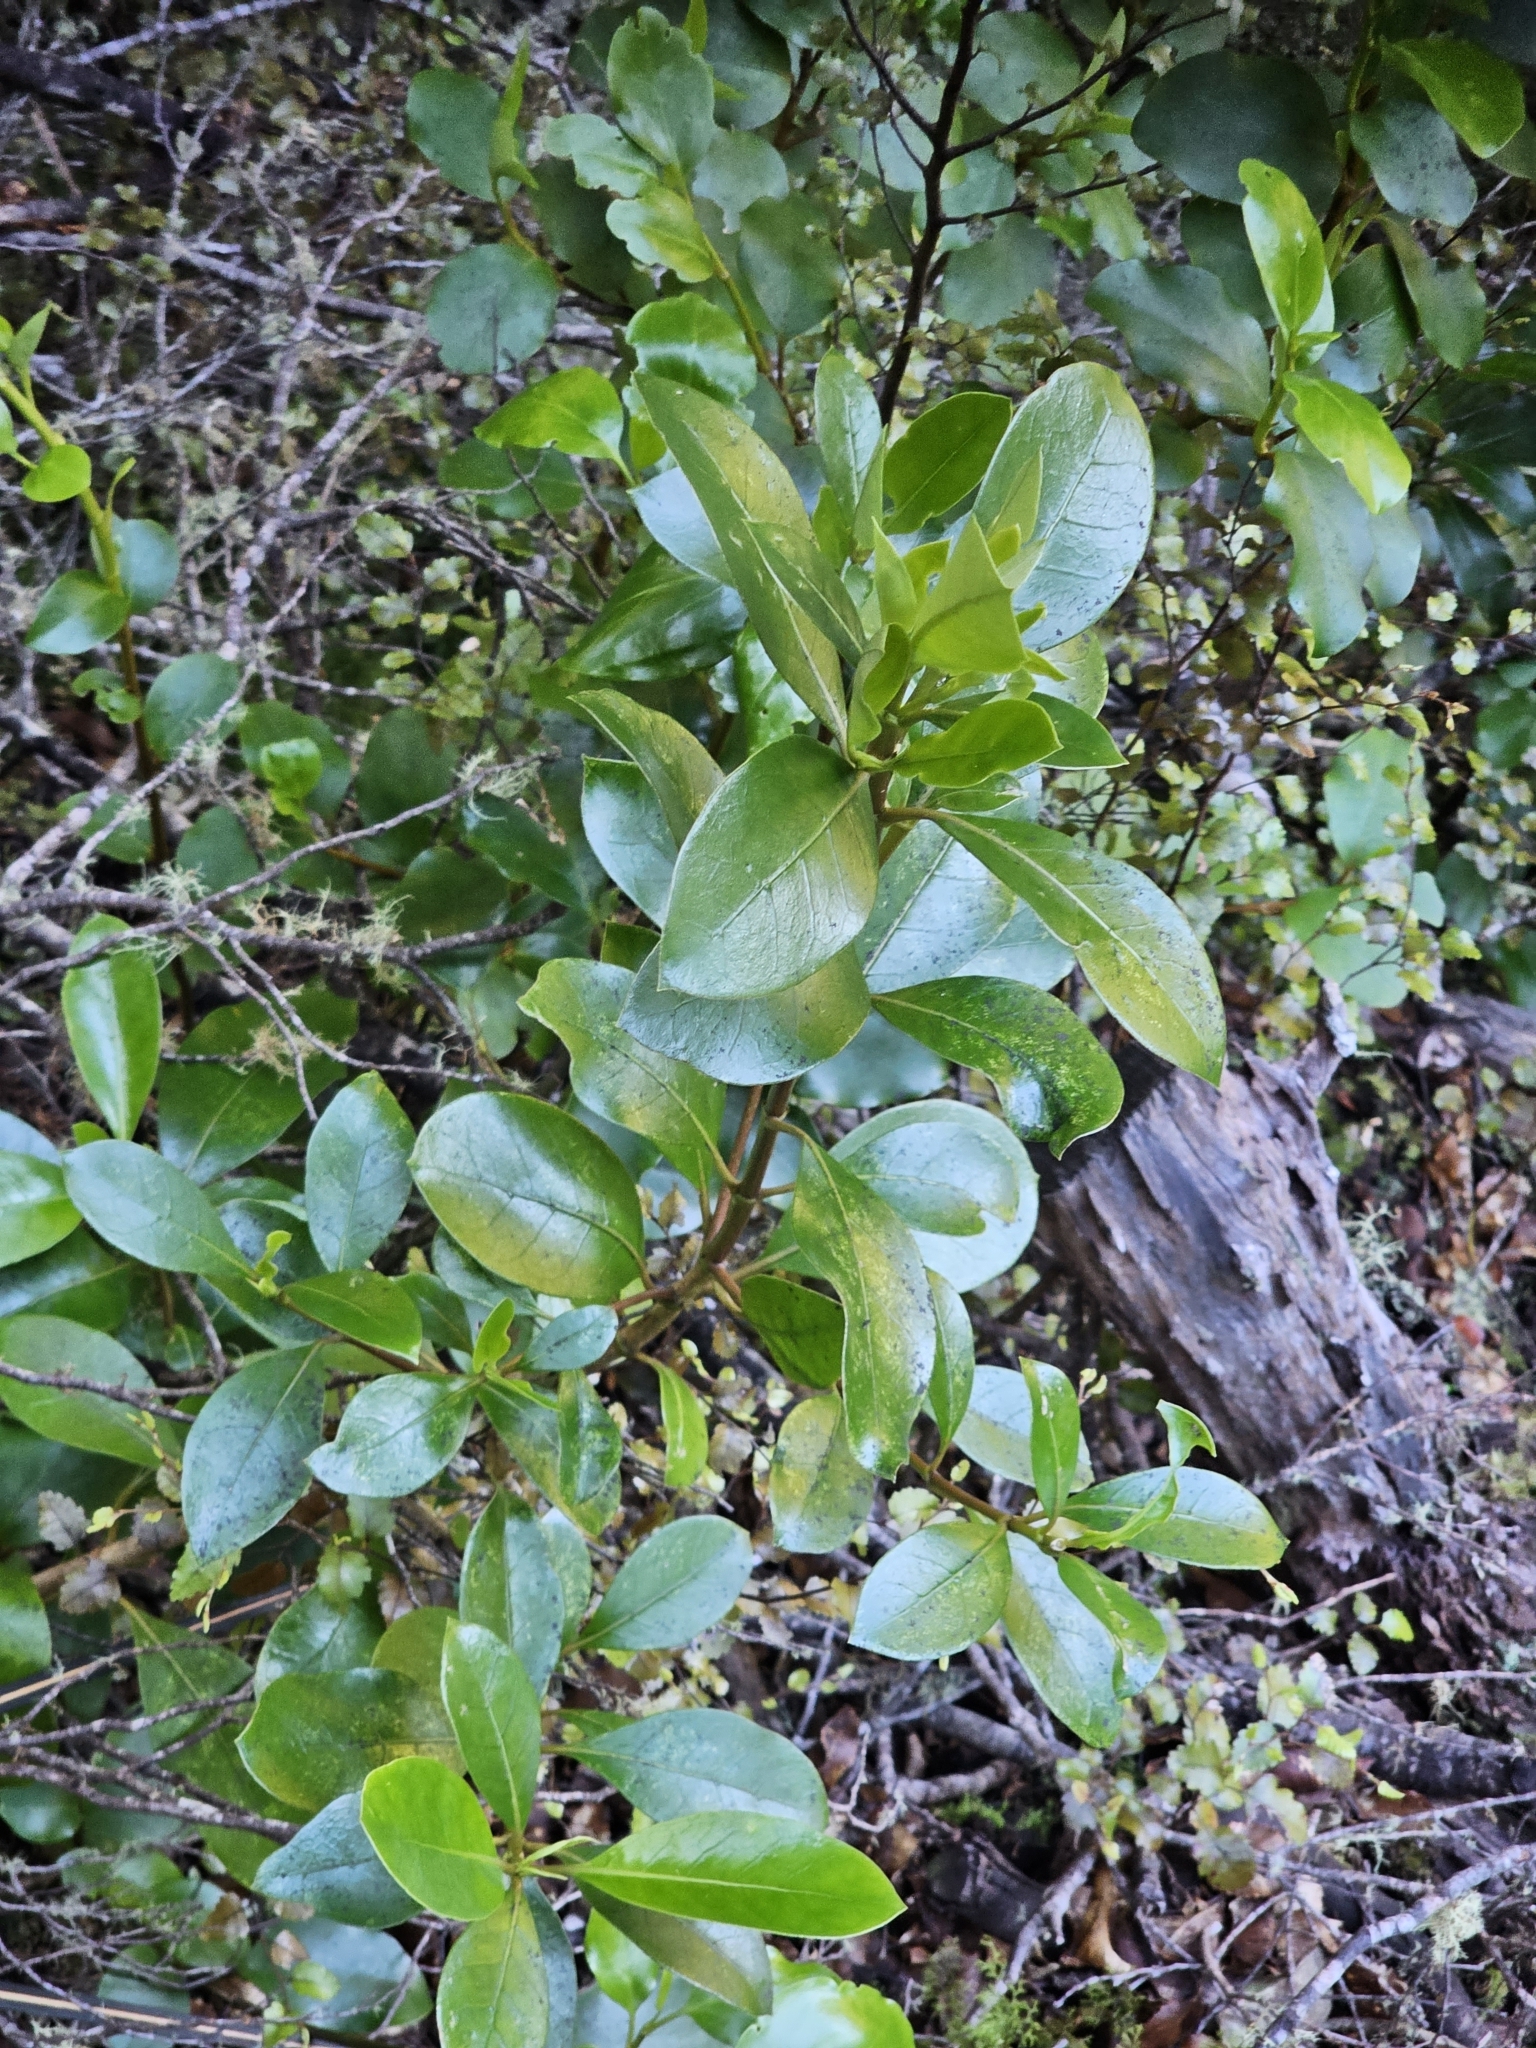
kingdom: Plantae
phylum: Tracheophyta
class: Magnoliopsida
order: Gentianales
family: Rubiaceae
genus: Coprosma
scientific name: Coprosma lucida
